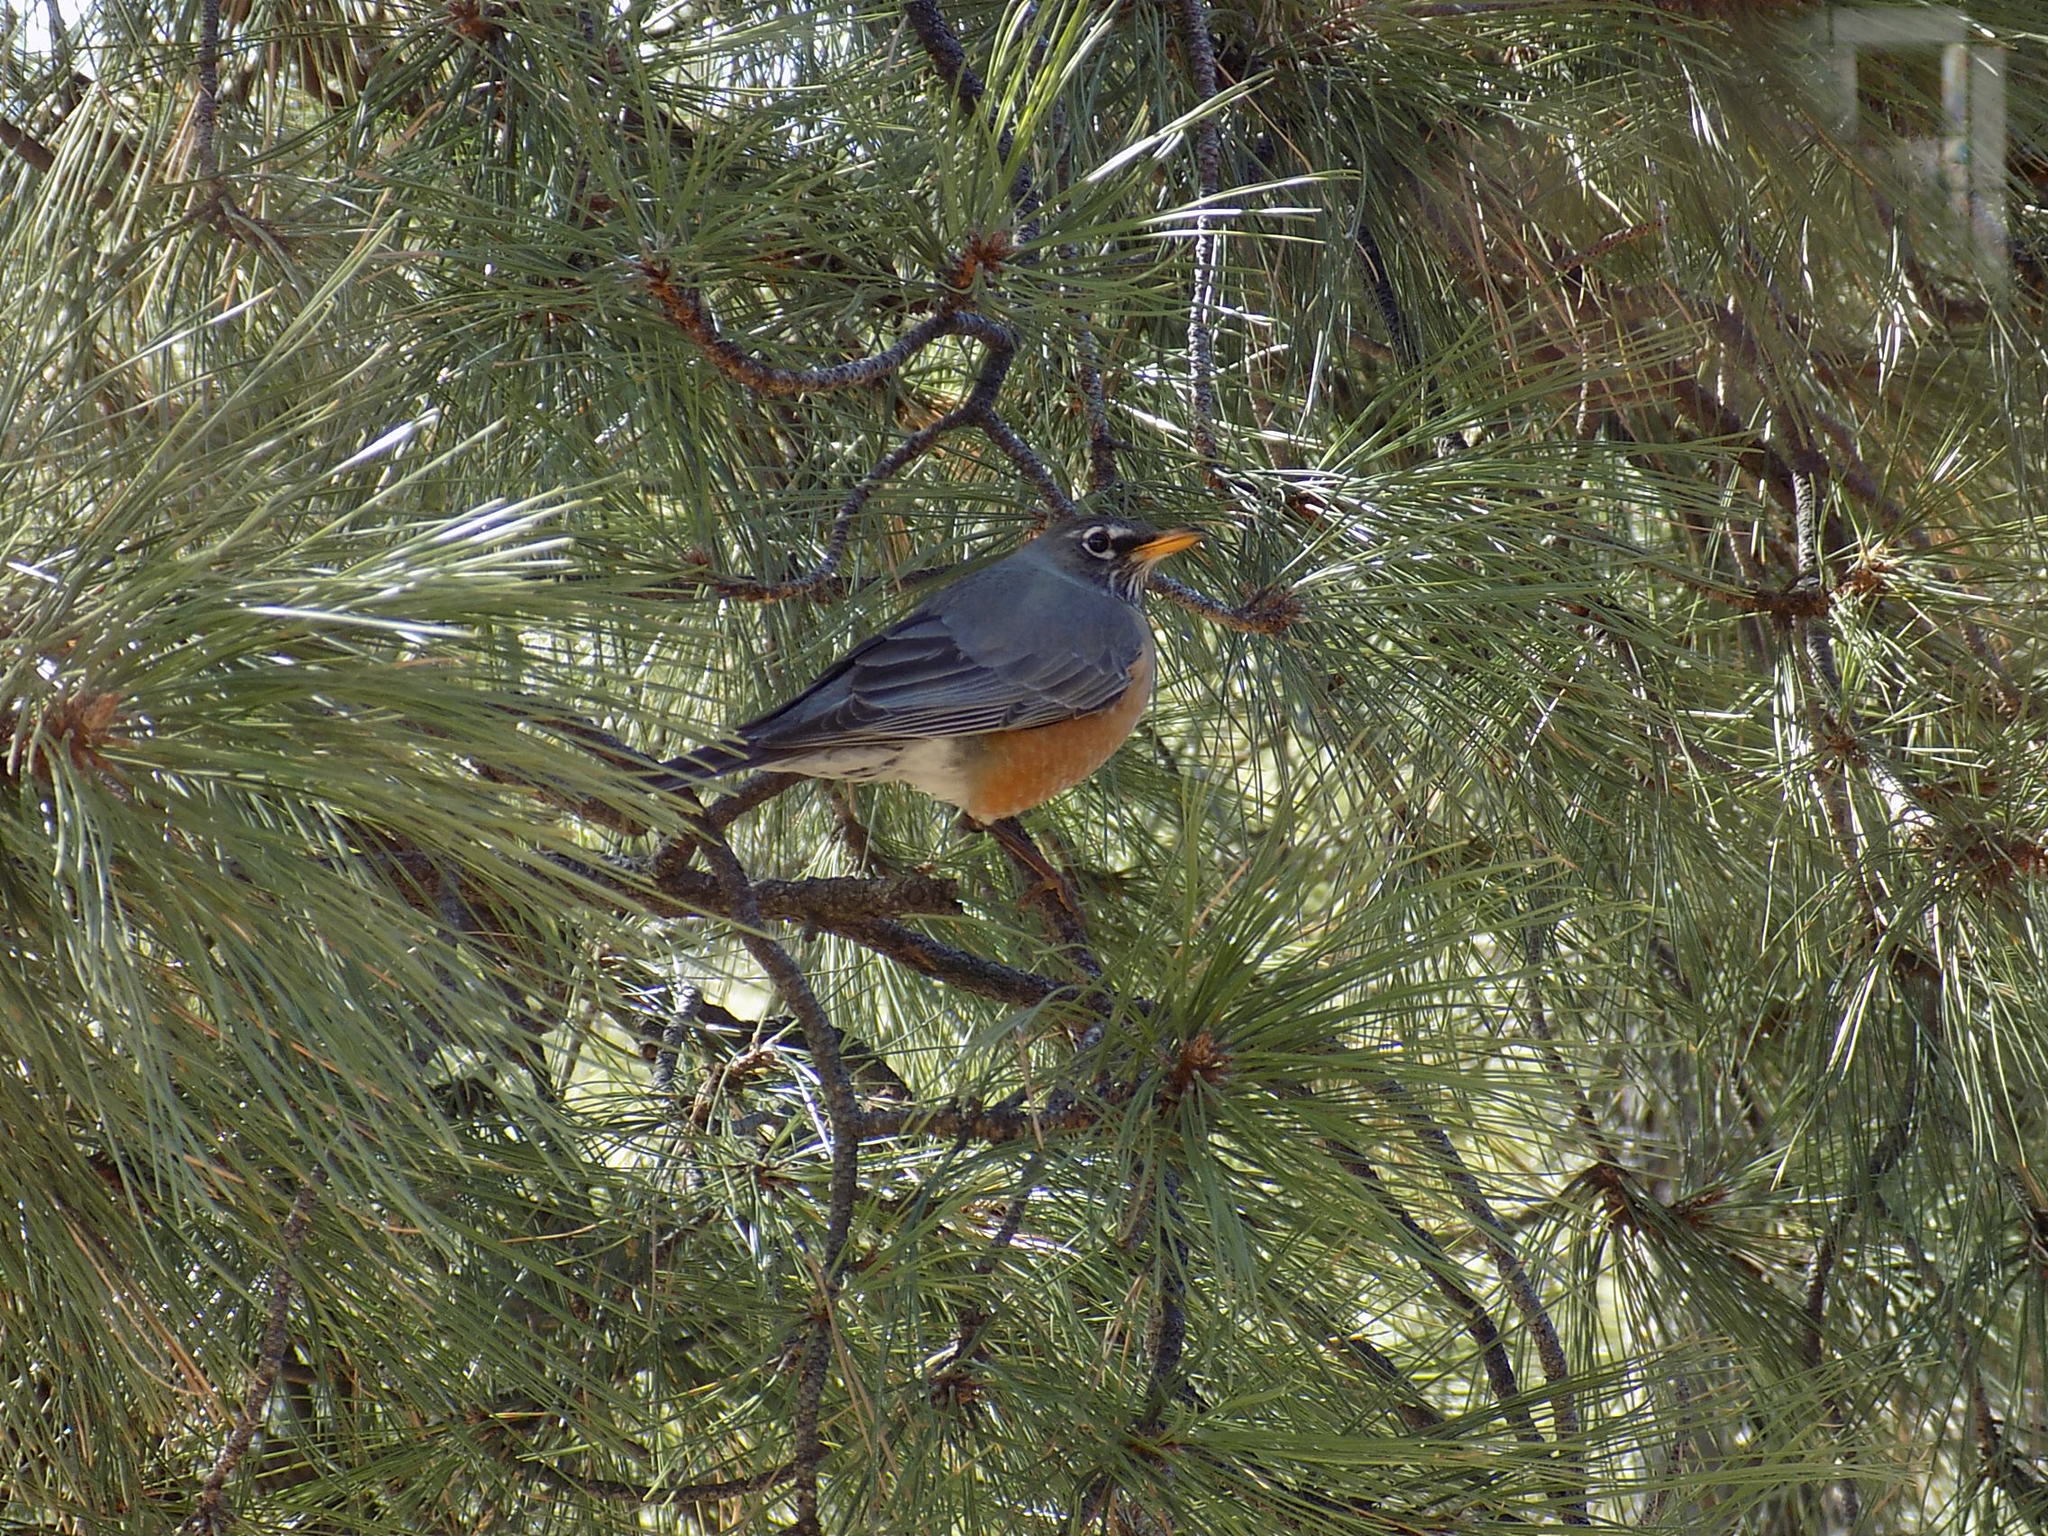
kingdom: Animalia
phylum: Chordata
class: Aves
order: Passeriformes
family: Turdidae
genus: Turdus
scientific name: Turdus migratorius
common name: American robin
